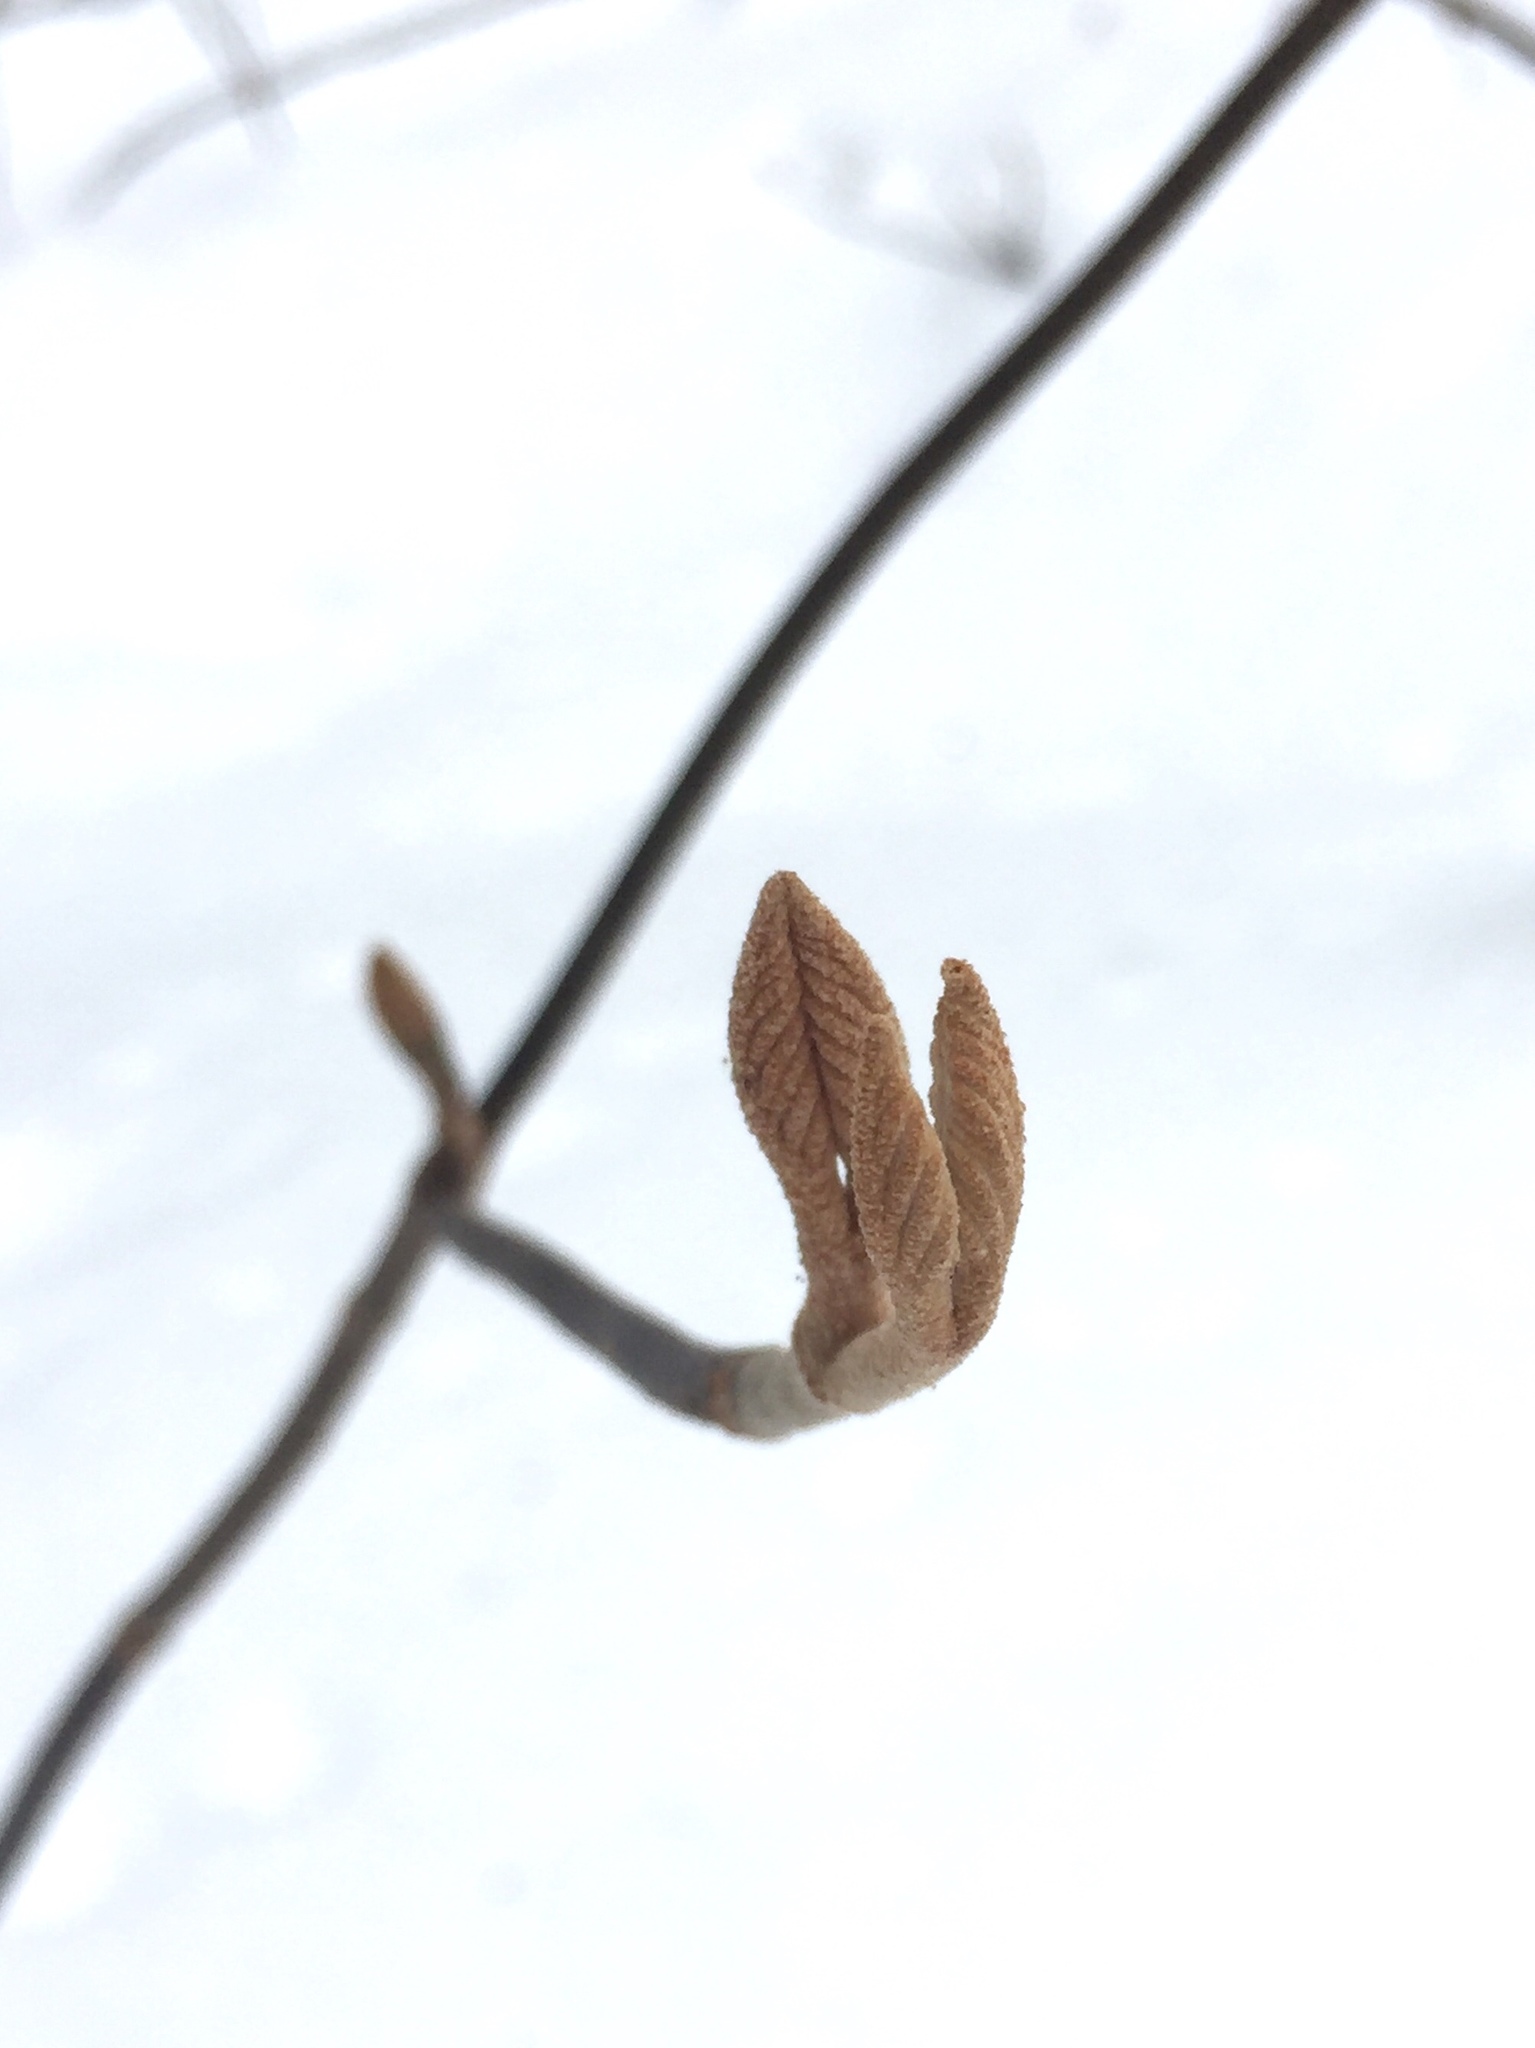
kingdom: Plantae
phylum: Tracheophyta
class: Magnoliopsida
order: Dipsacales
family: Viburnaceae
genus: Viburnum
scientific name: Viburnum lantanoides
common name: Hobblebush
